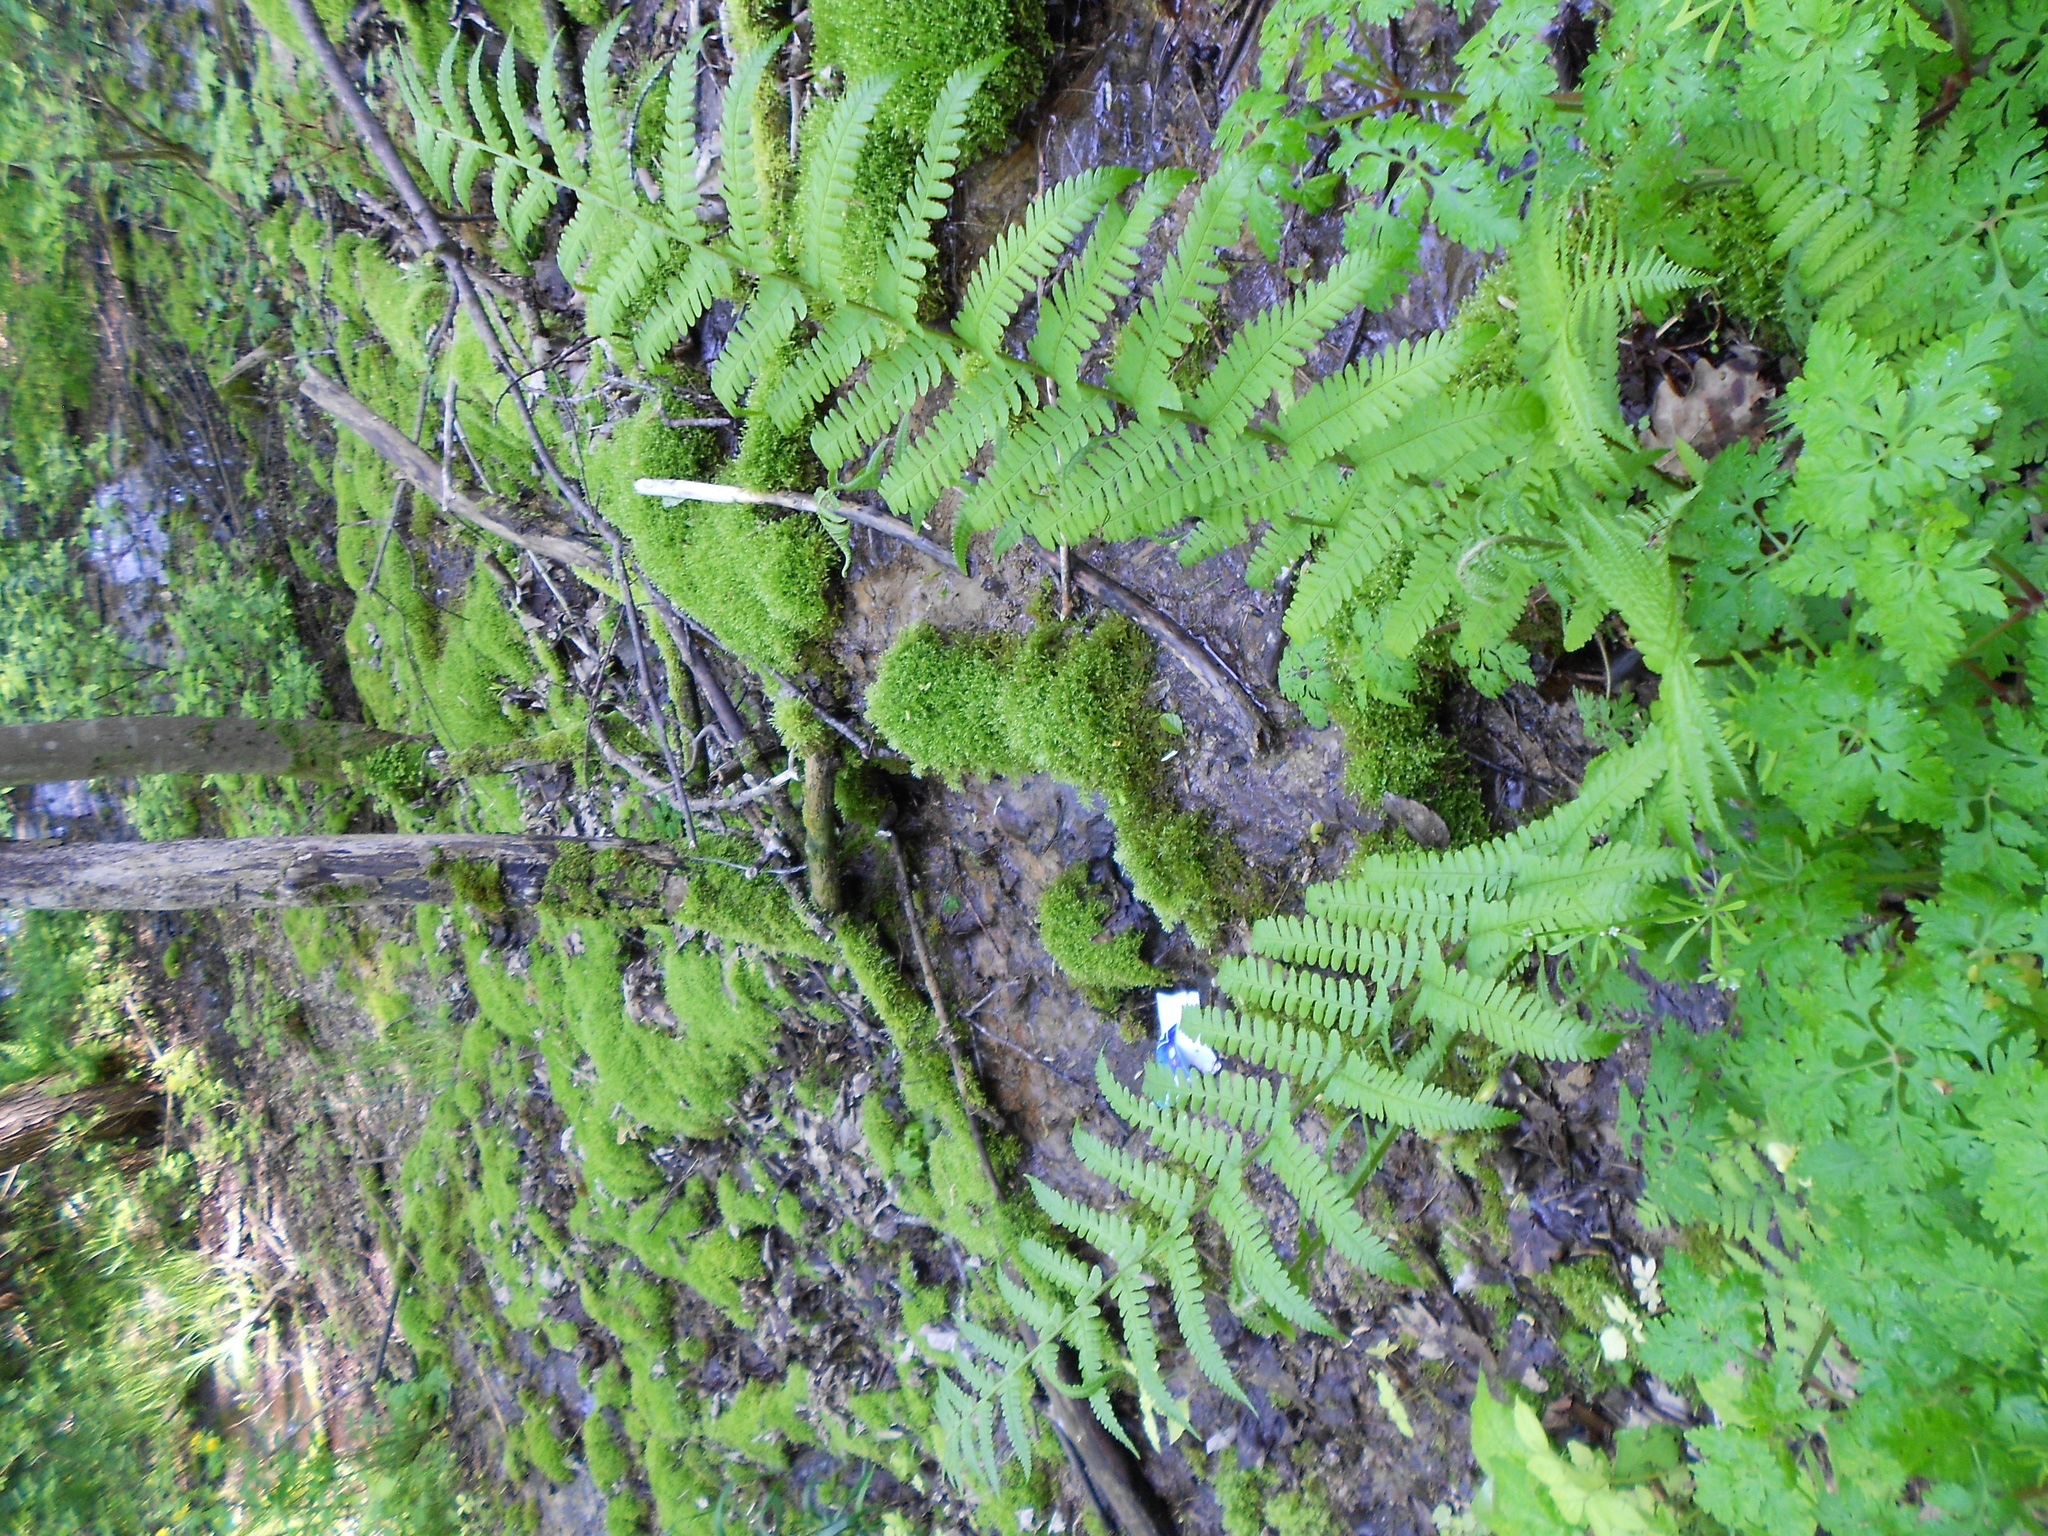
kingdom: Plantae
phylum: Tracheophyta
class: Polypodiopsida
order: Polypodiales
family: Dryopteridaceae
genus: Dryopteris
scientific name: Dryopteris filix-mas
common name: Male fern
